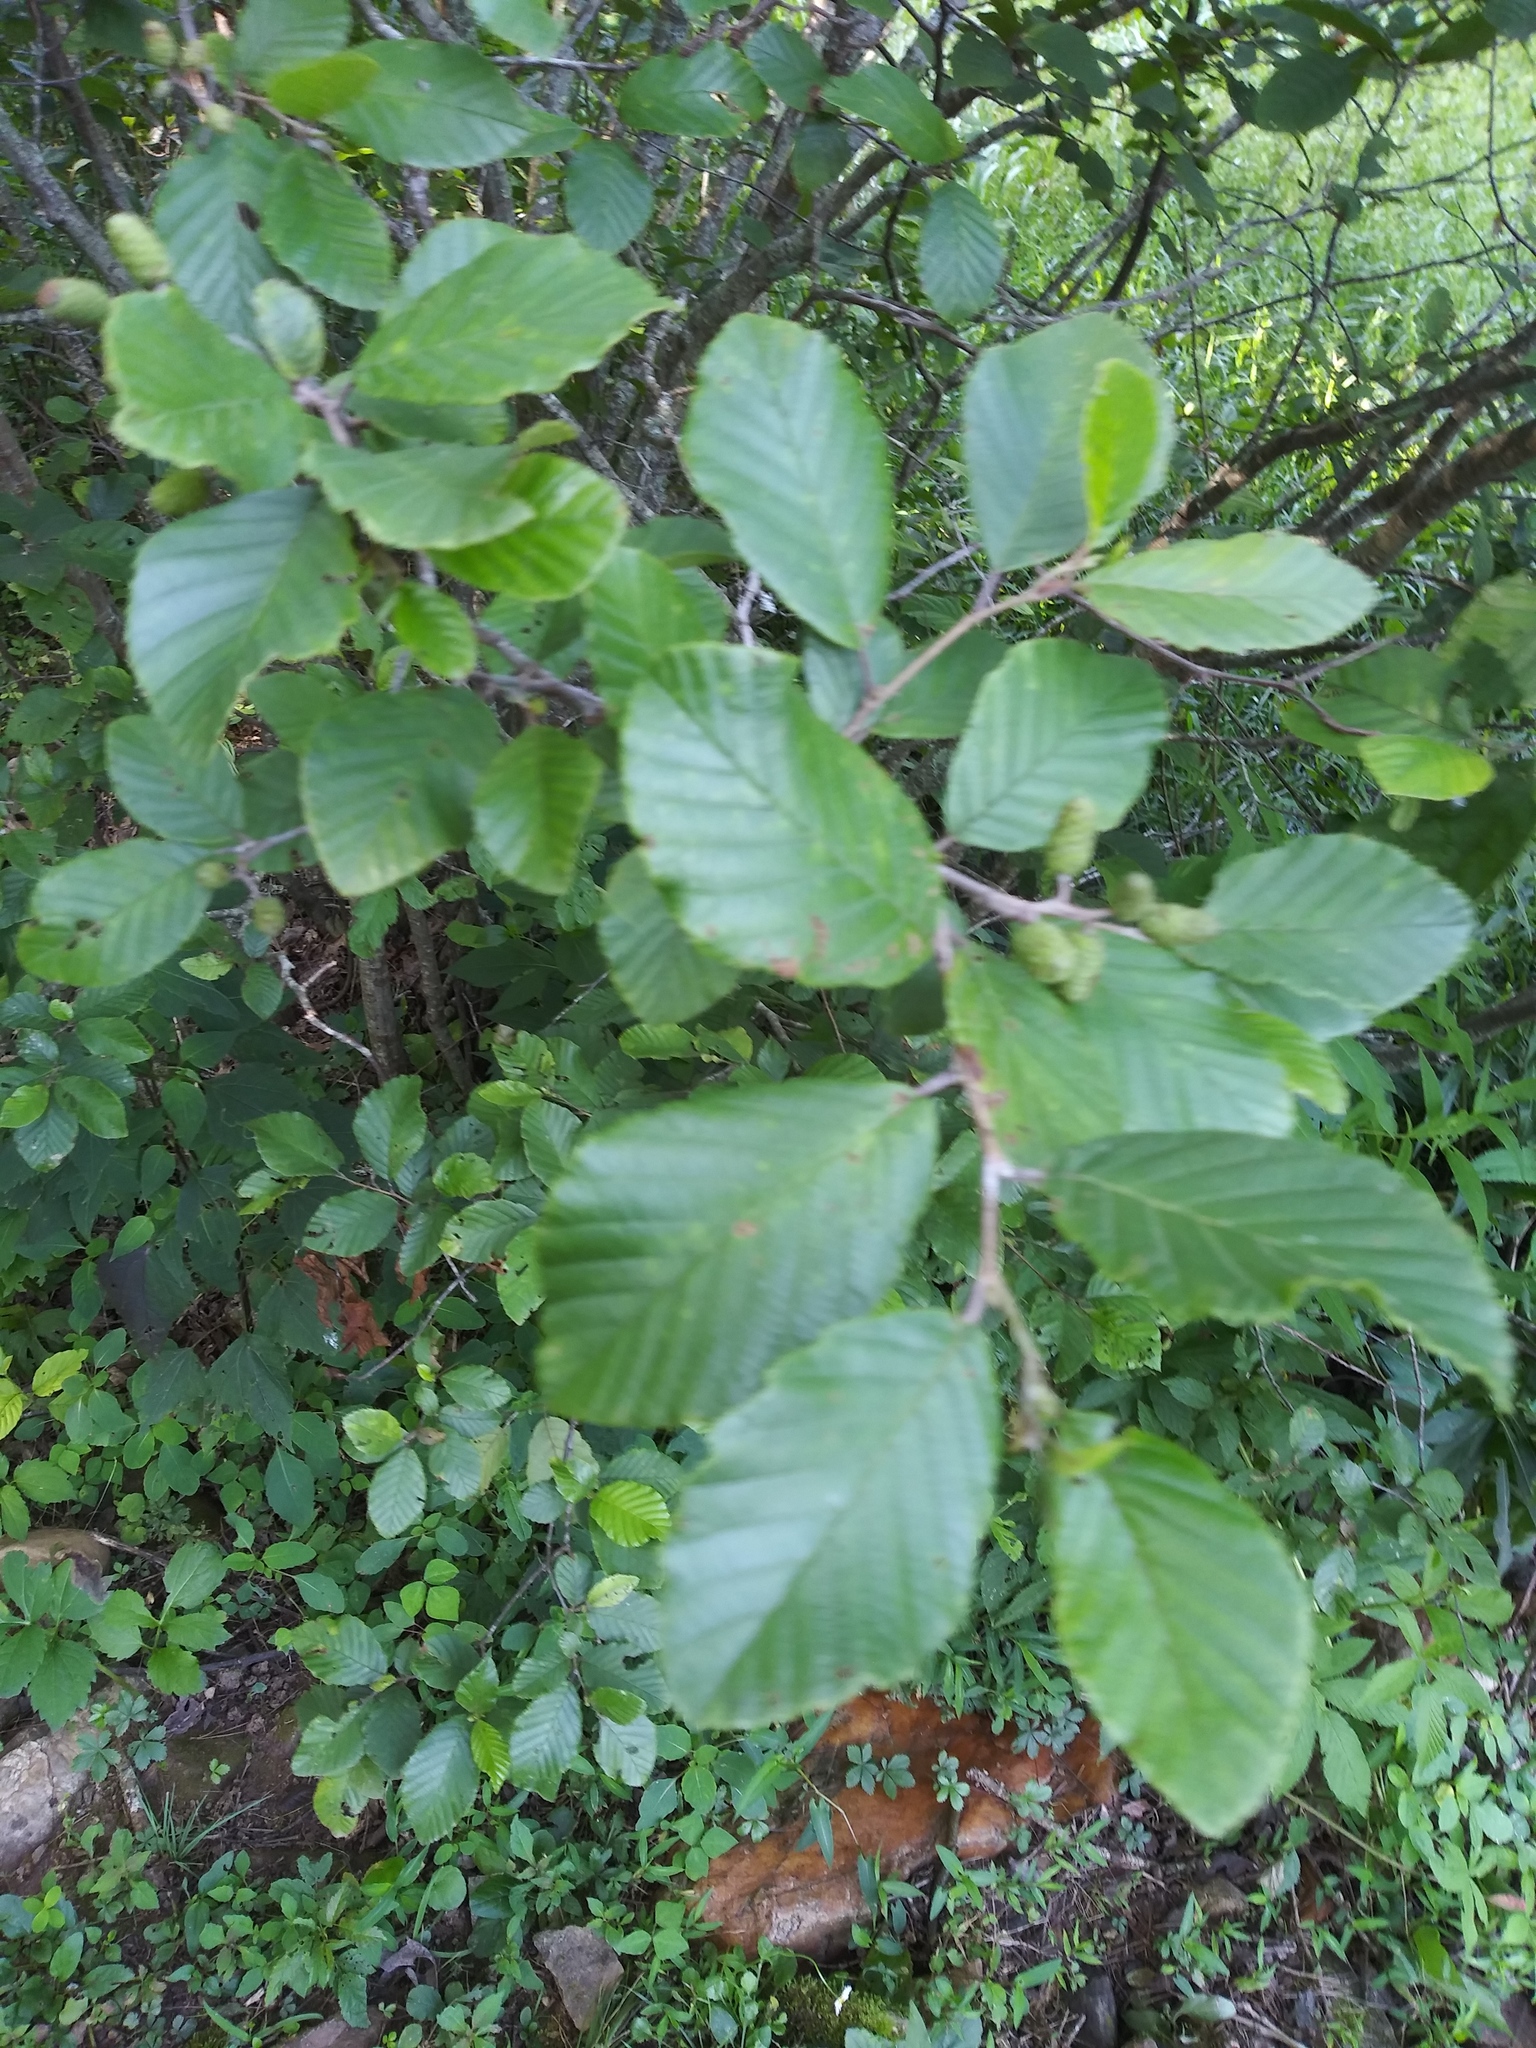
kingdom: Plantae
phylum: Tracheophyta
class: Magnoliopsida
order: Fagales
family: Betulaceae
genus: Alnus
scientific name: Alnus serrulata
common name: Hazel alder
